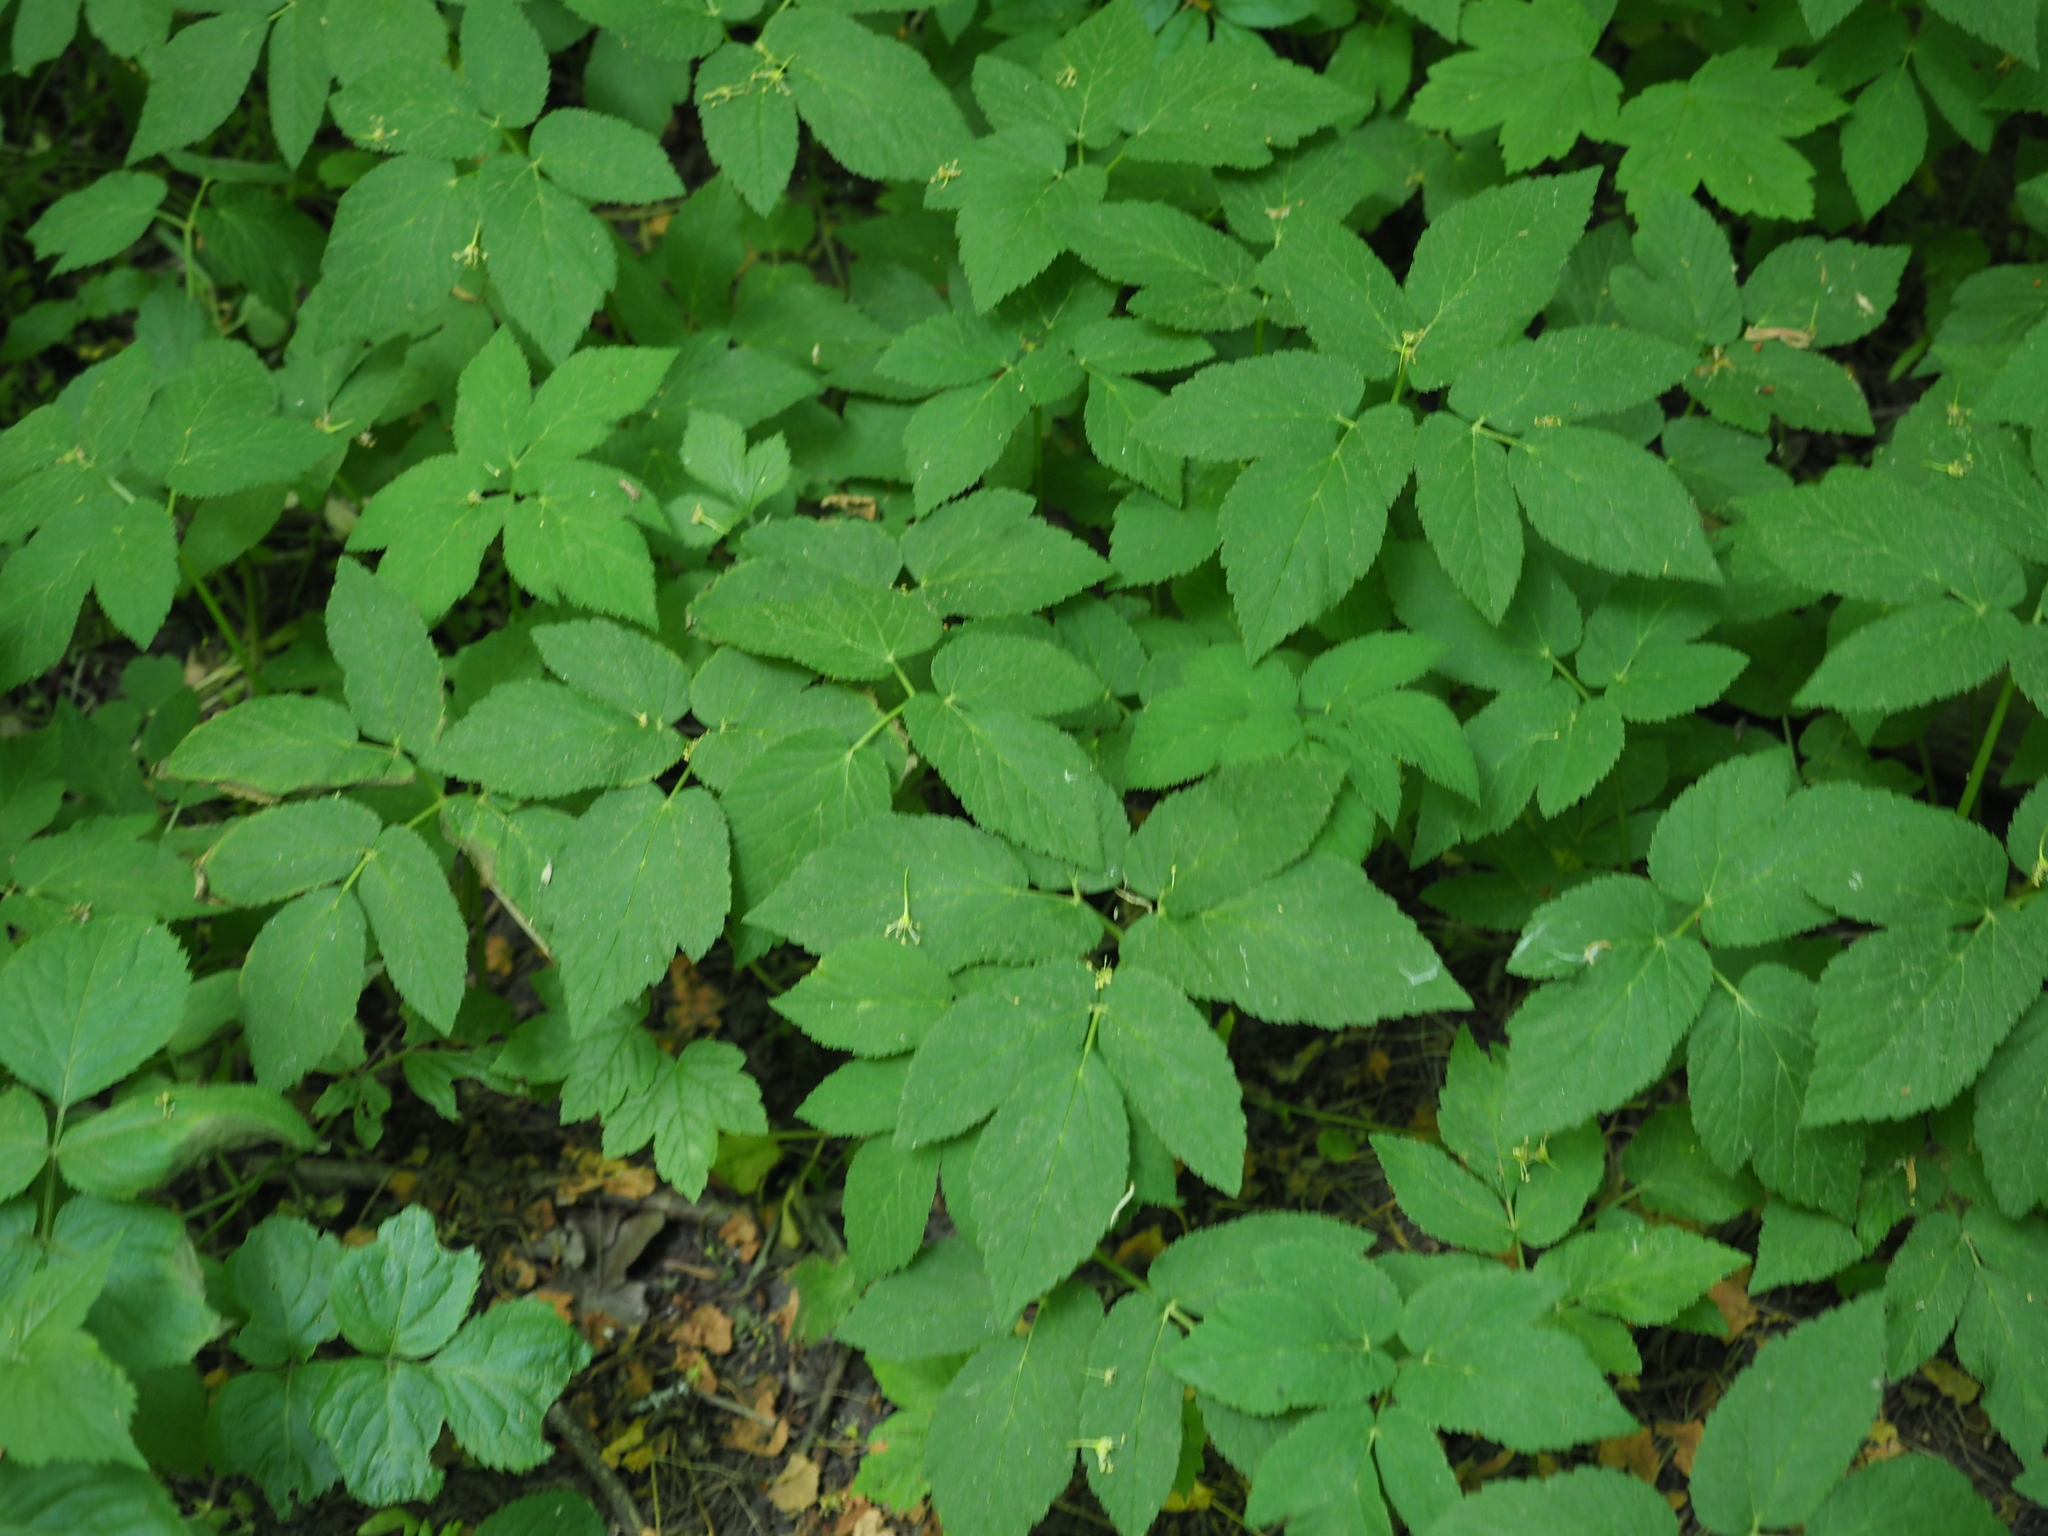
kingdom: Plantae
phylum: Tracheophyta
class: Magnoliopsida
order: Apiales
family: Apiaceae
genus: Aegopodium
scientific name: Aegopodium podagraria
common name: Ground-elder
